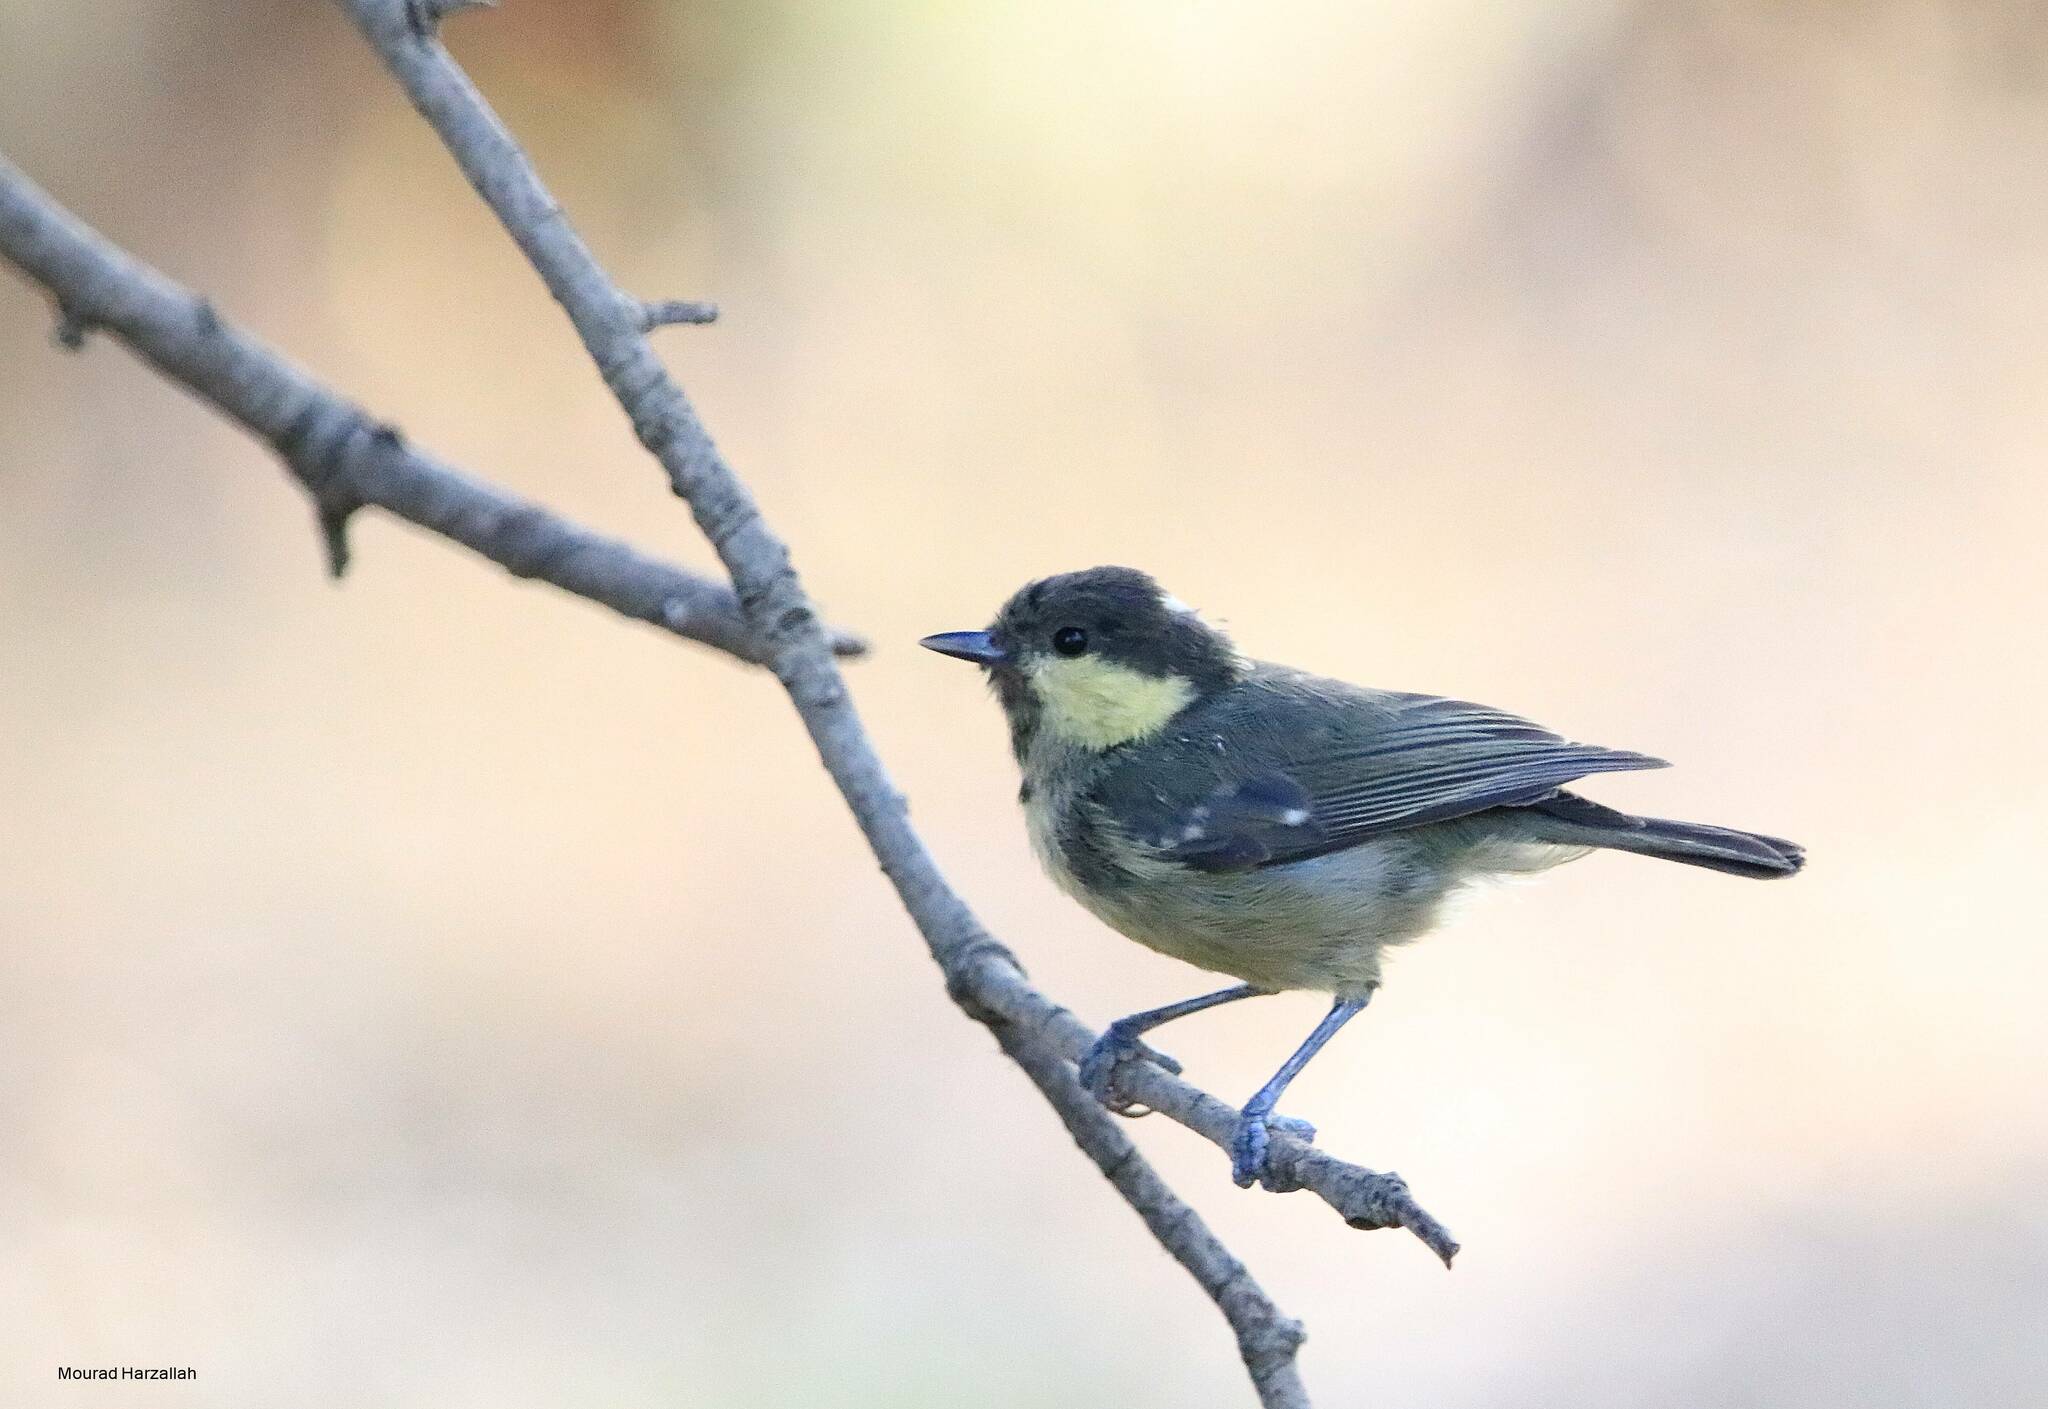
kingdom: Animalia
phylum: Chordata
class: Aves
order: Passeriformes
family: Paridae
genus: Periparus
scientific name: Periparus ater
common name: Coal tit
